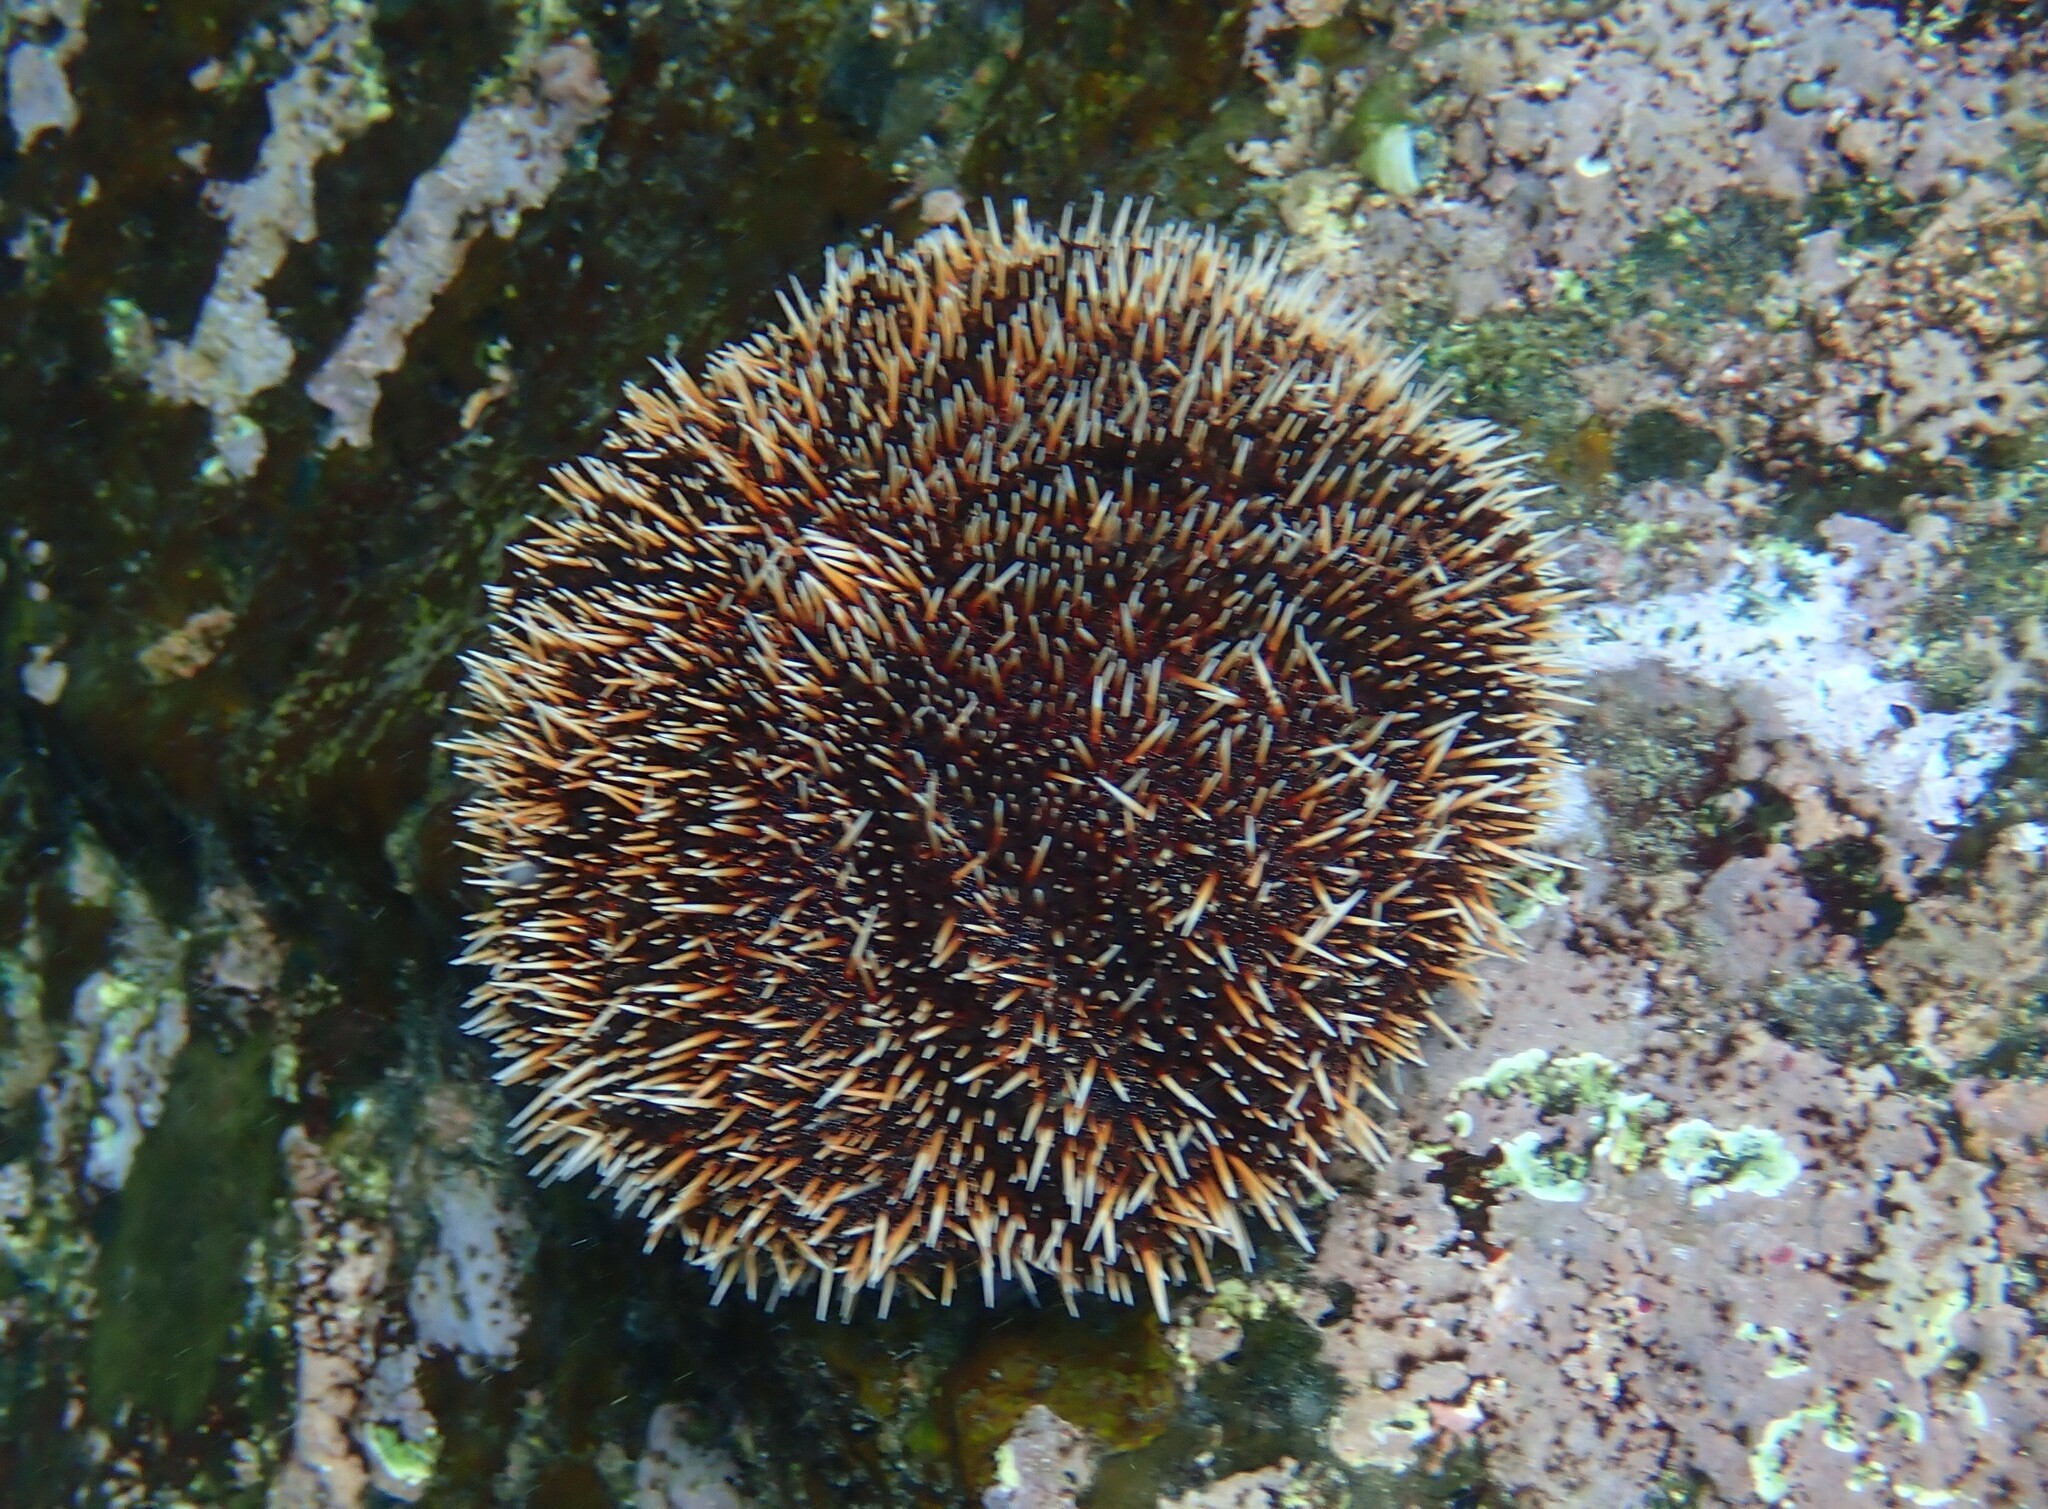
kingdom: Animalia
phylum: Echinodermata
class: Echinoidea
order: Camarodonta
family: Toxopneustidae
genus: Tripneustes
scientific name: Tripneustes depressus
